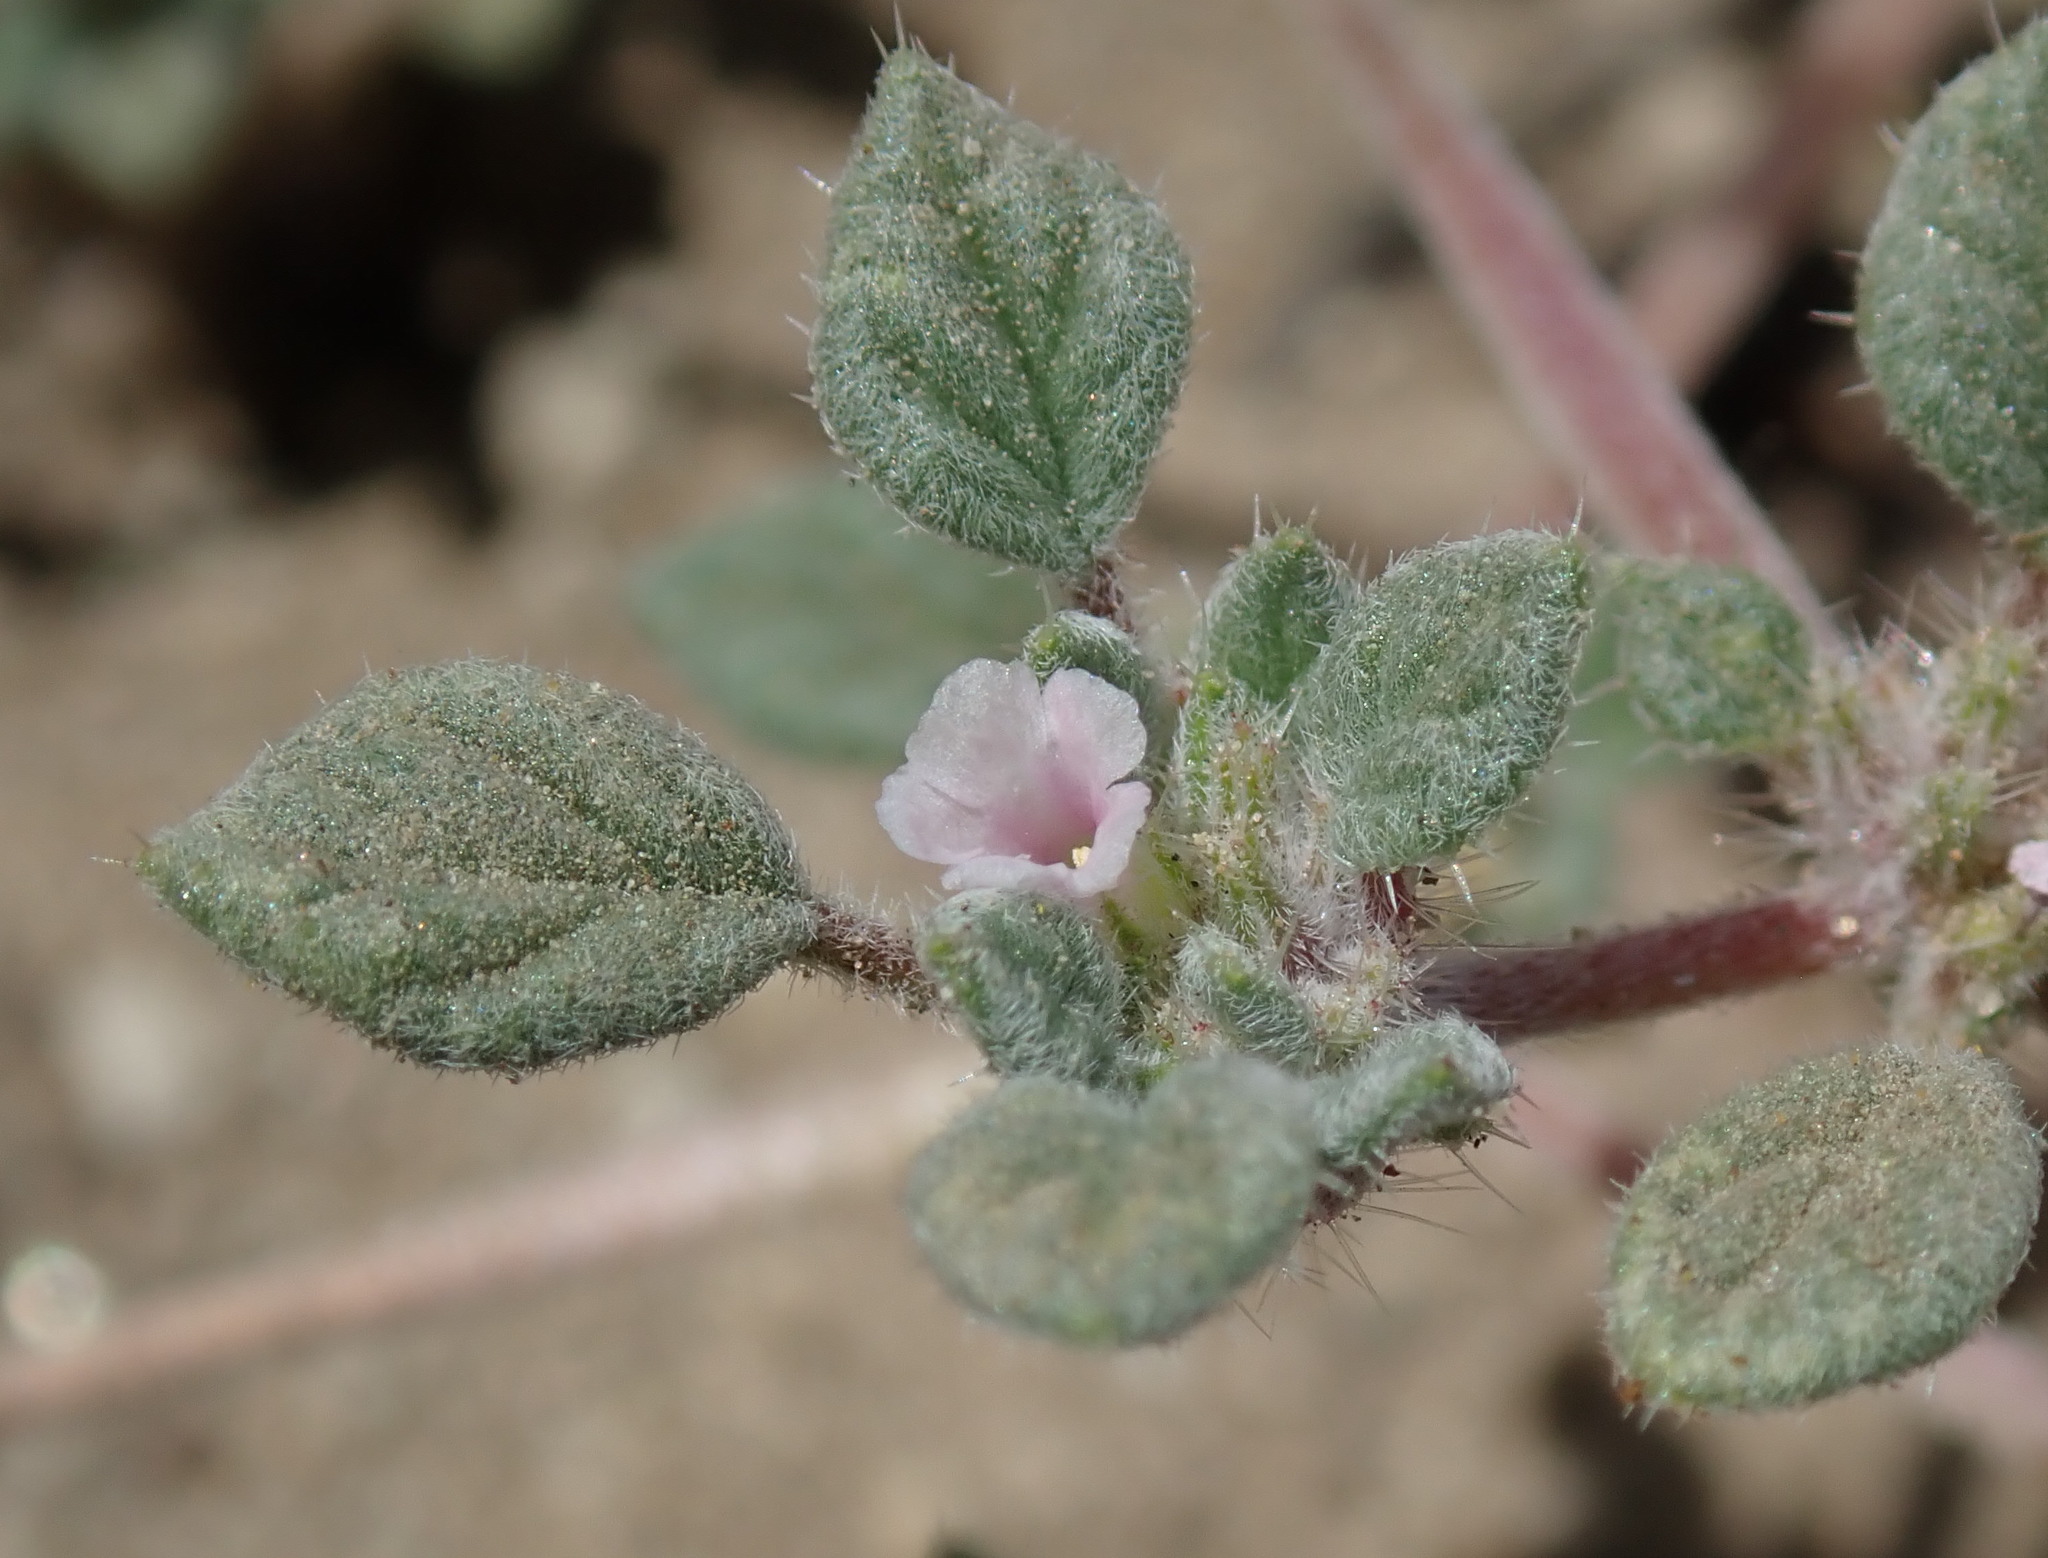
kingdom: Plantae
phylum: Tracheophyta
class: Magnoliopsida
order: Boraginales
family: Ehretiaceae
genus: Tiquilia
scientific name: Tiquilia nuttallii
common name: Rosette tiquilia
